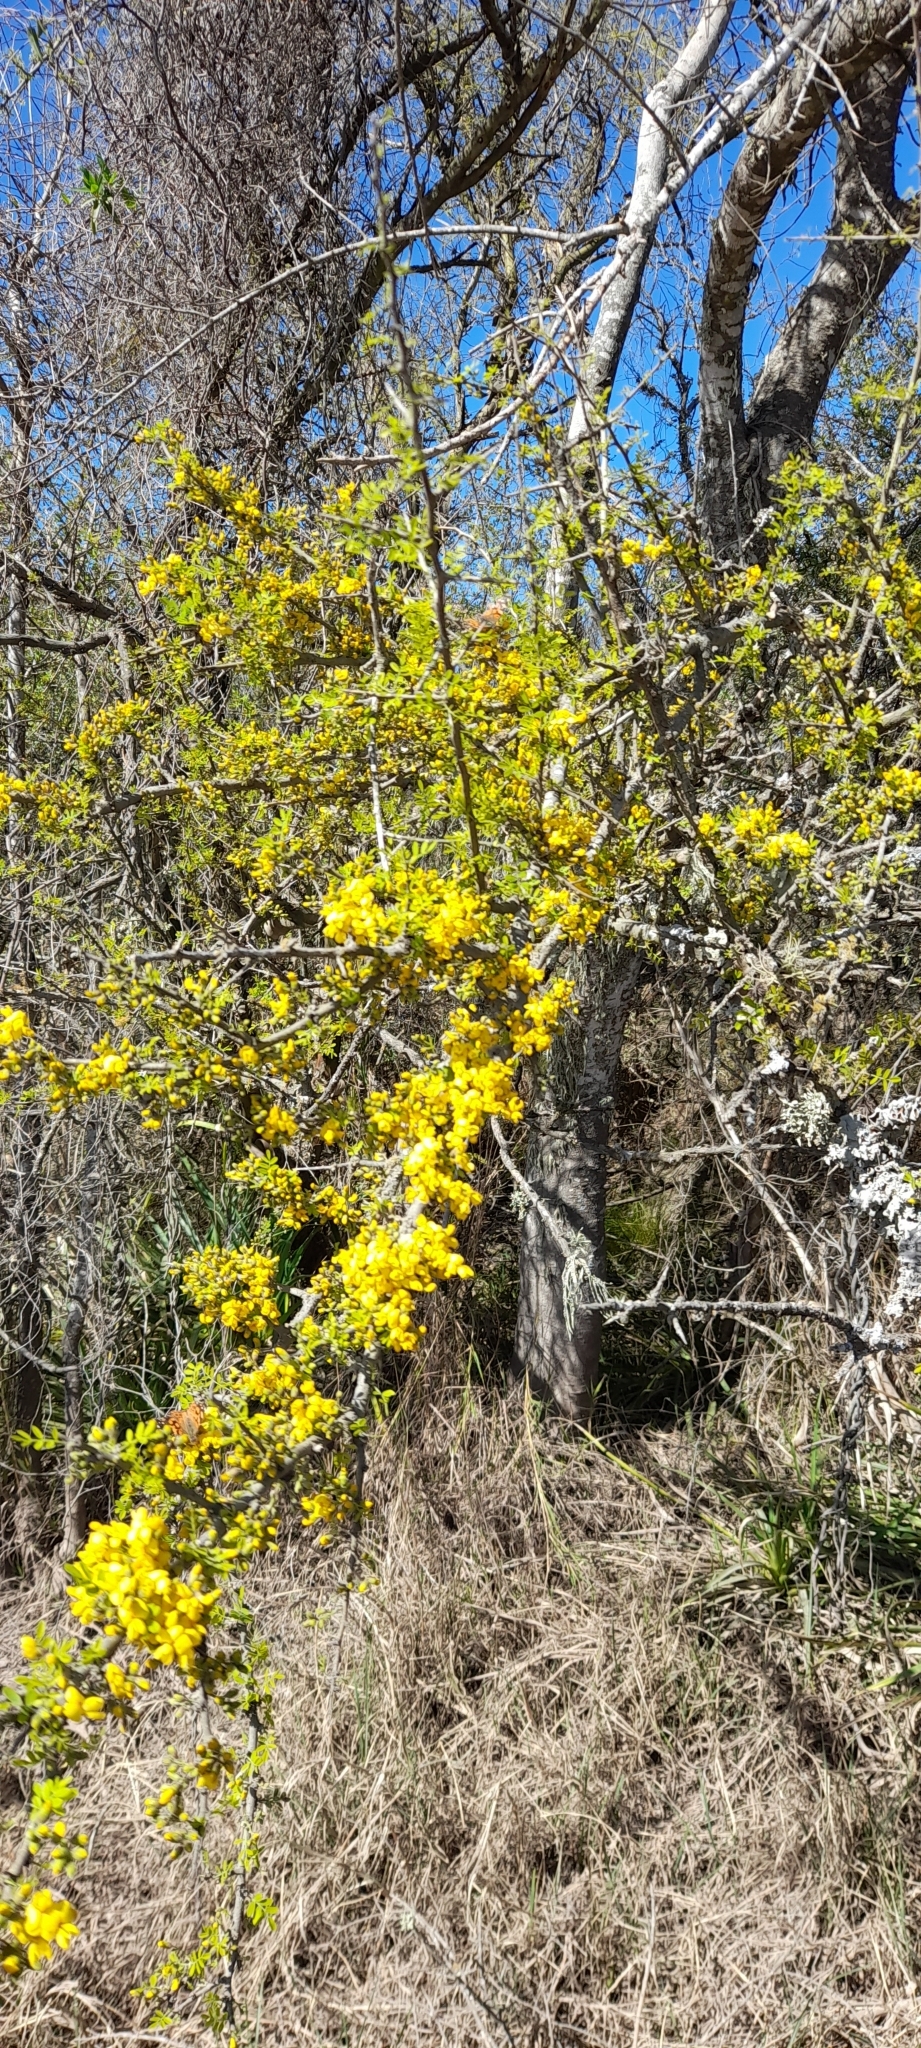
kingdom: Plantae
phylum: Tracheophyta
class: Magnoliopsida
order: Fabales
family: Fabaceae
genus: Geoffroea
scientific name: Geoffroea decorticans
